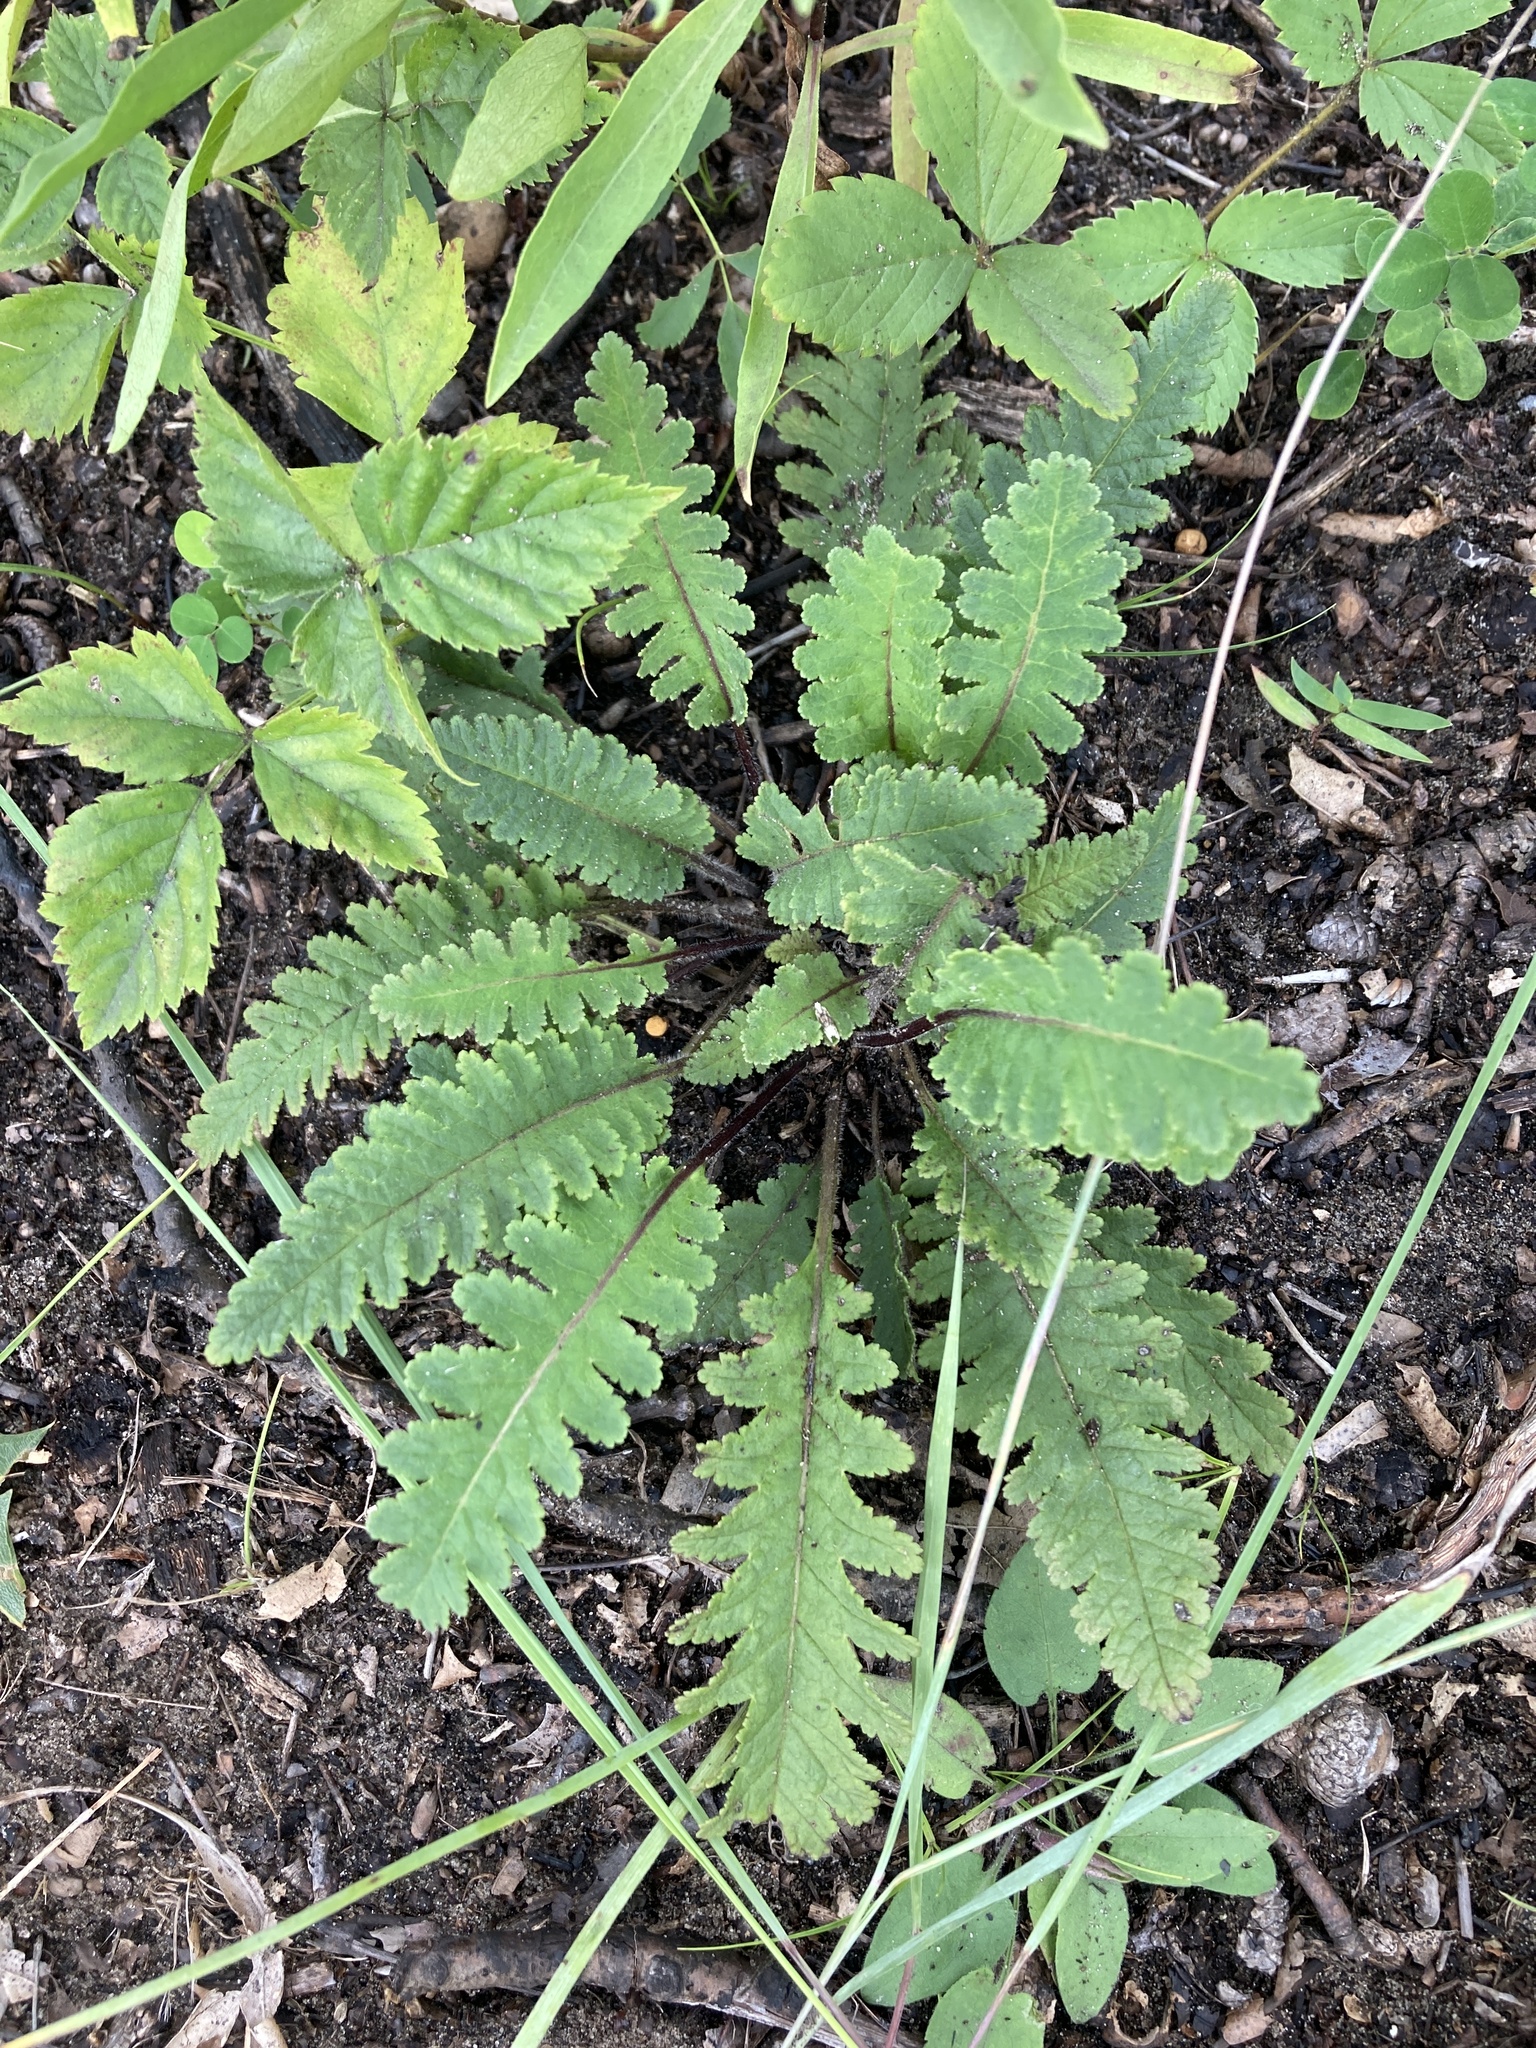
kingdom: Plantae
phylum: Tracheophyta
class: Magnoliopsida
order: Lamiales
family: Orobanchaceae
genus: Pedicularis
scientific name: Pedicularis canadensis
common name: Early lousewort
